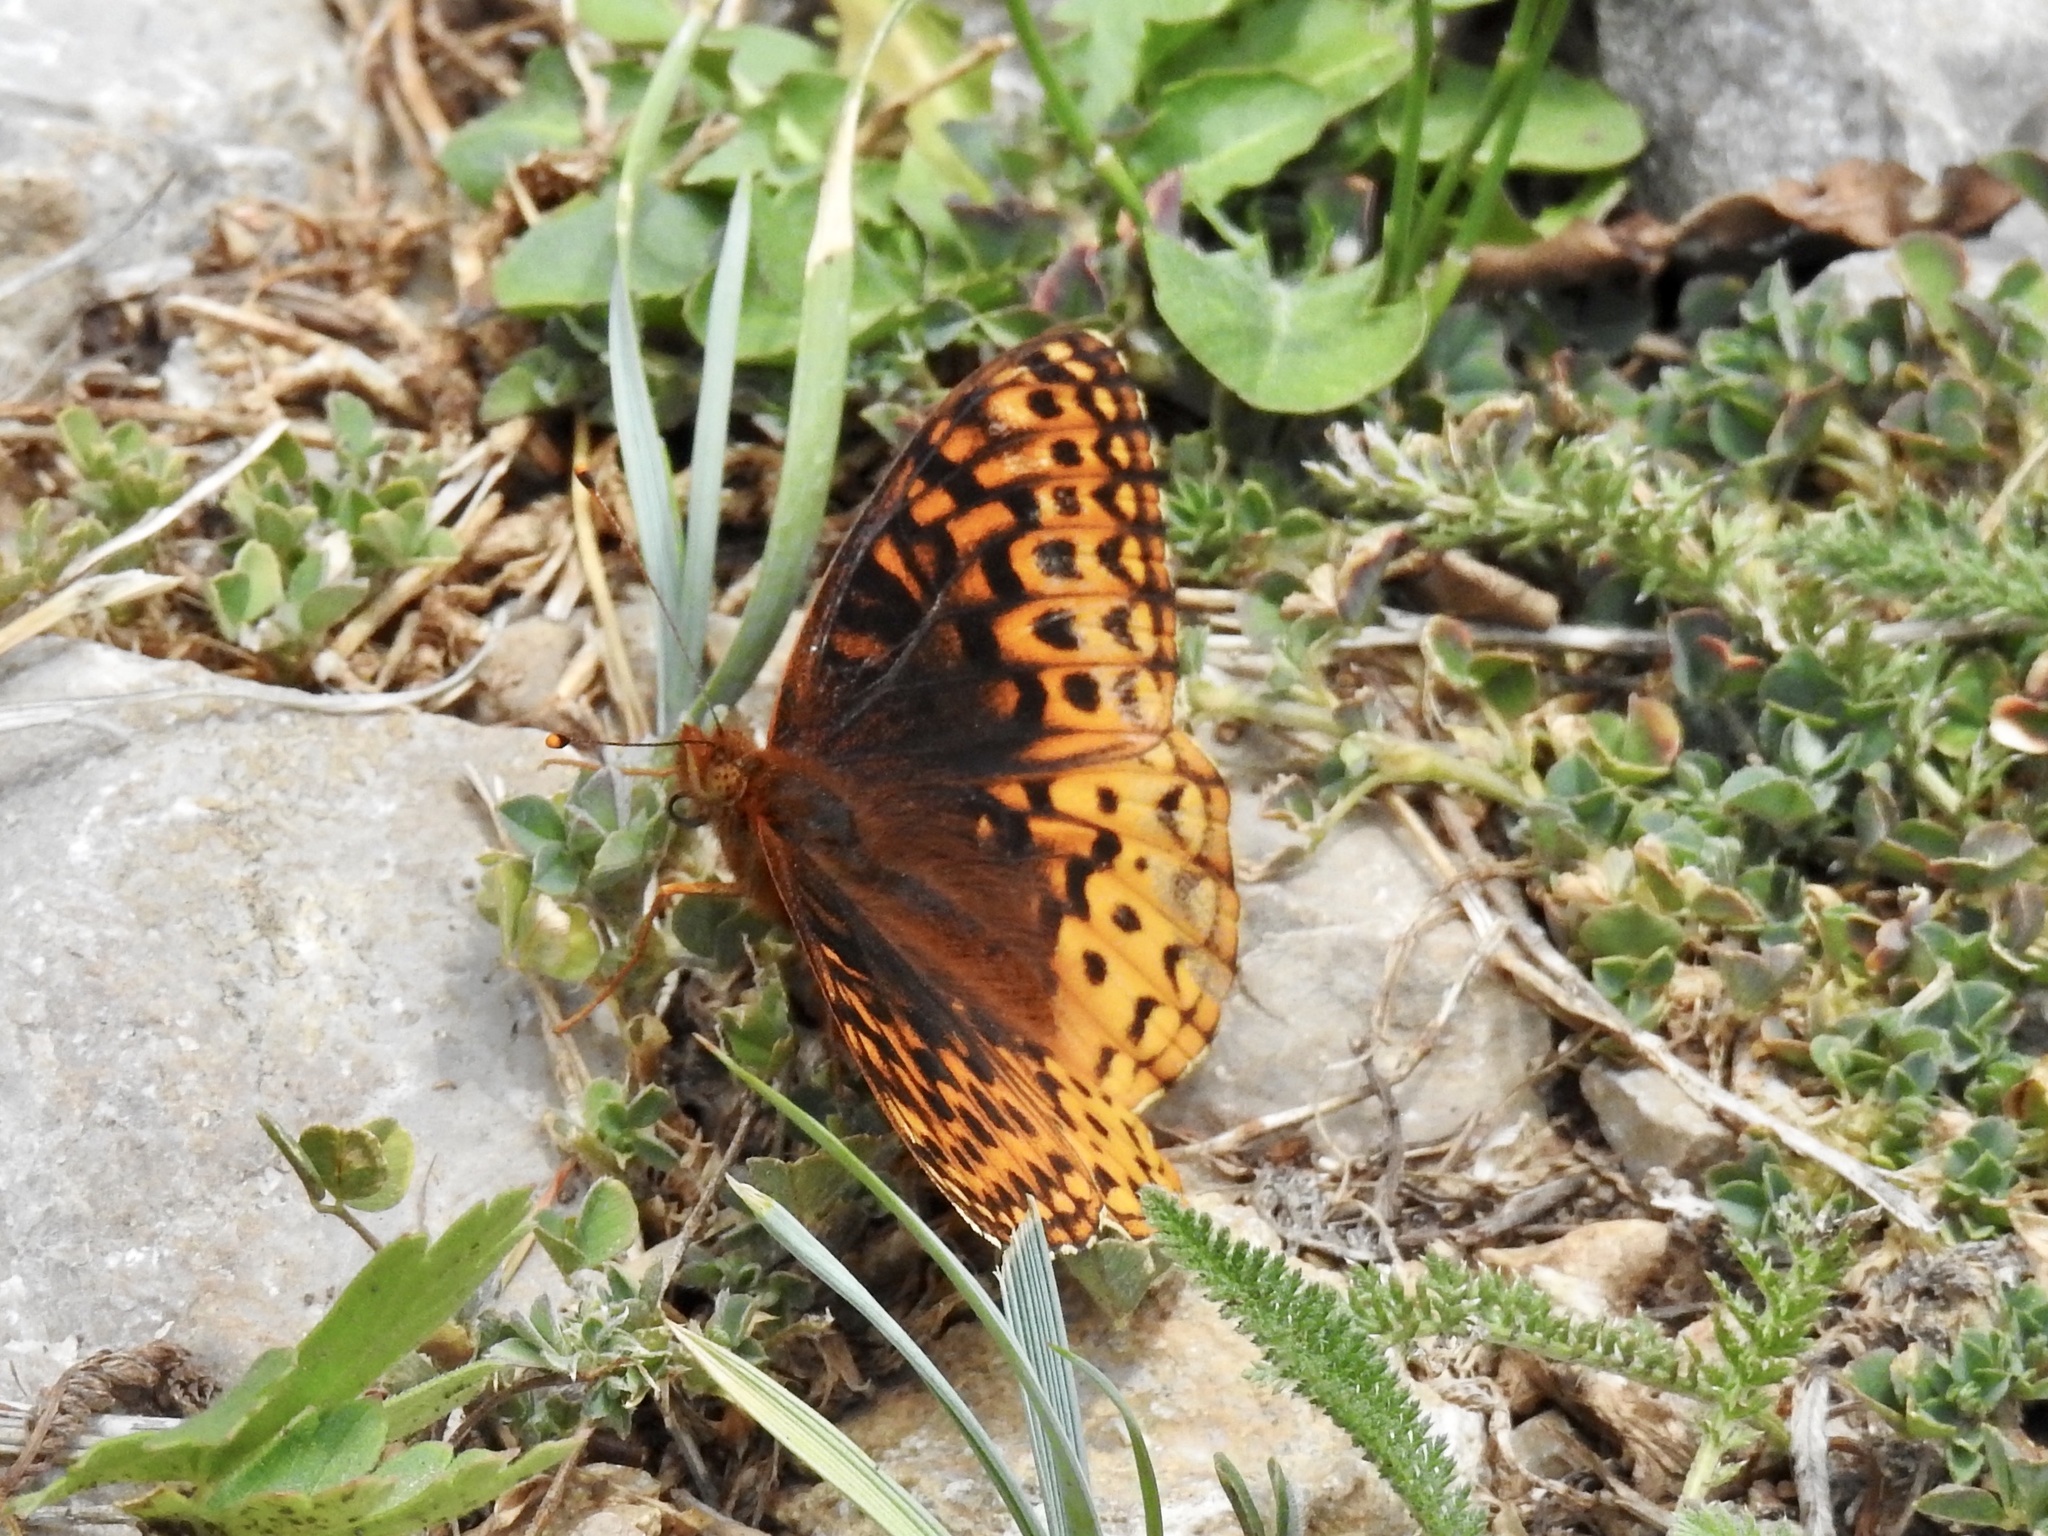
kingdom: Animalia
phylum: Arthropoda
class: Insecta
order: Lepidoptera
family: Nymphalidae
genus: Speyeria
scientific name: Speyeria atlantis
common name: Atlantis fritillary
